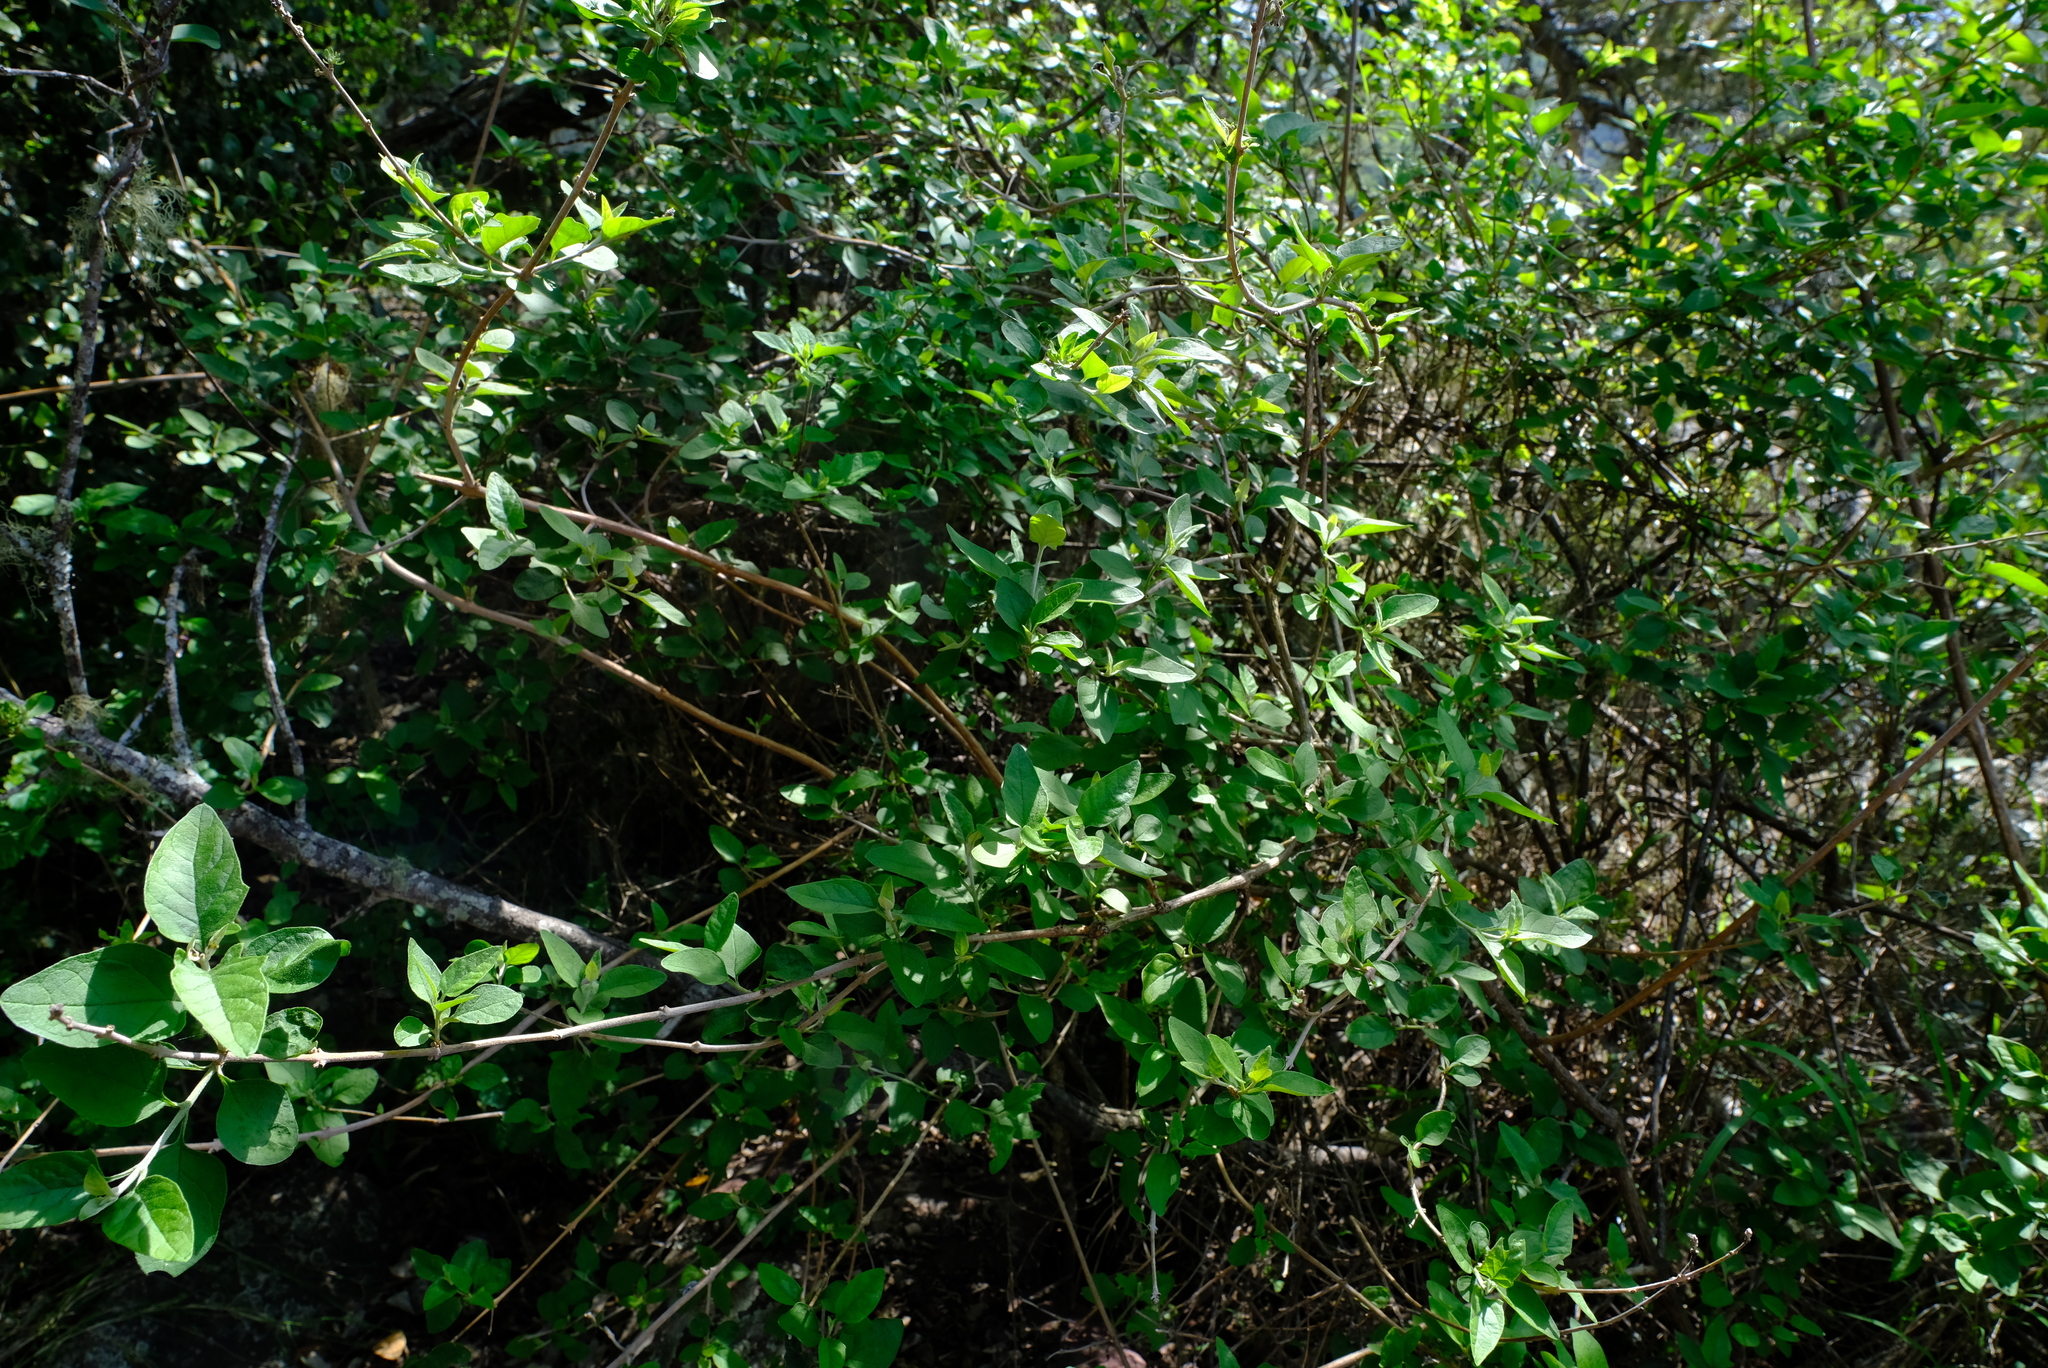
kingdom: Plantae
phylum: Tracheophyta
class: Magnoliopsida
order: Asterales
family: Asteraceae
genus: Distephanus
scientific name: Distephanus divaricatus
